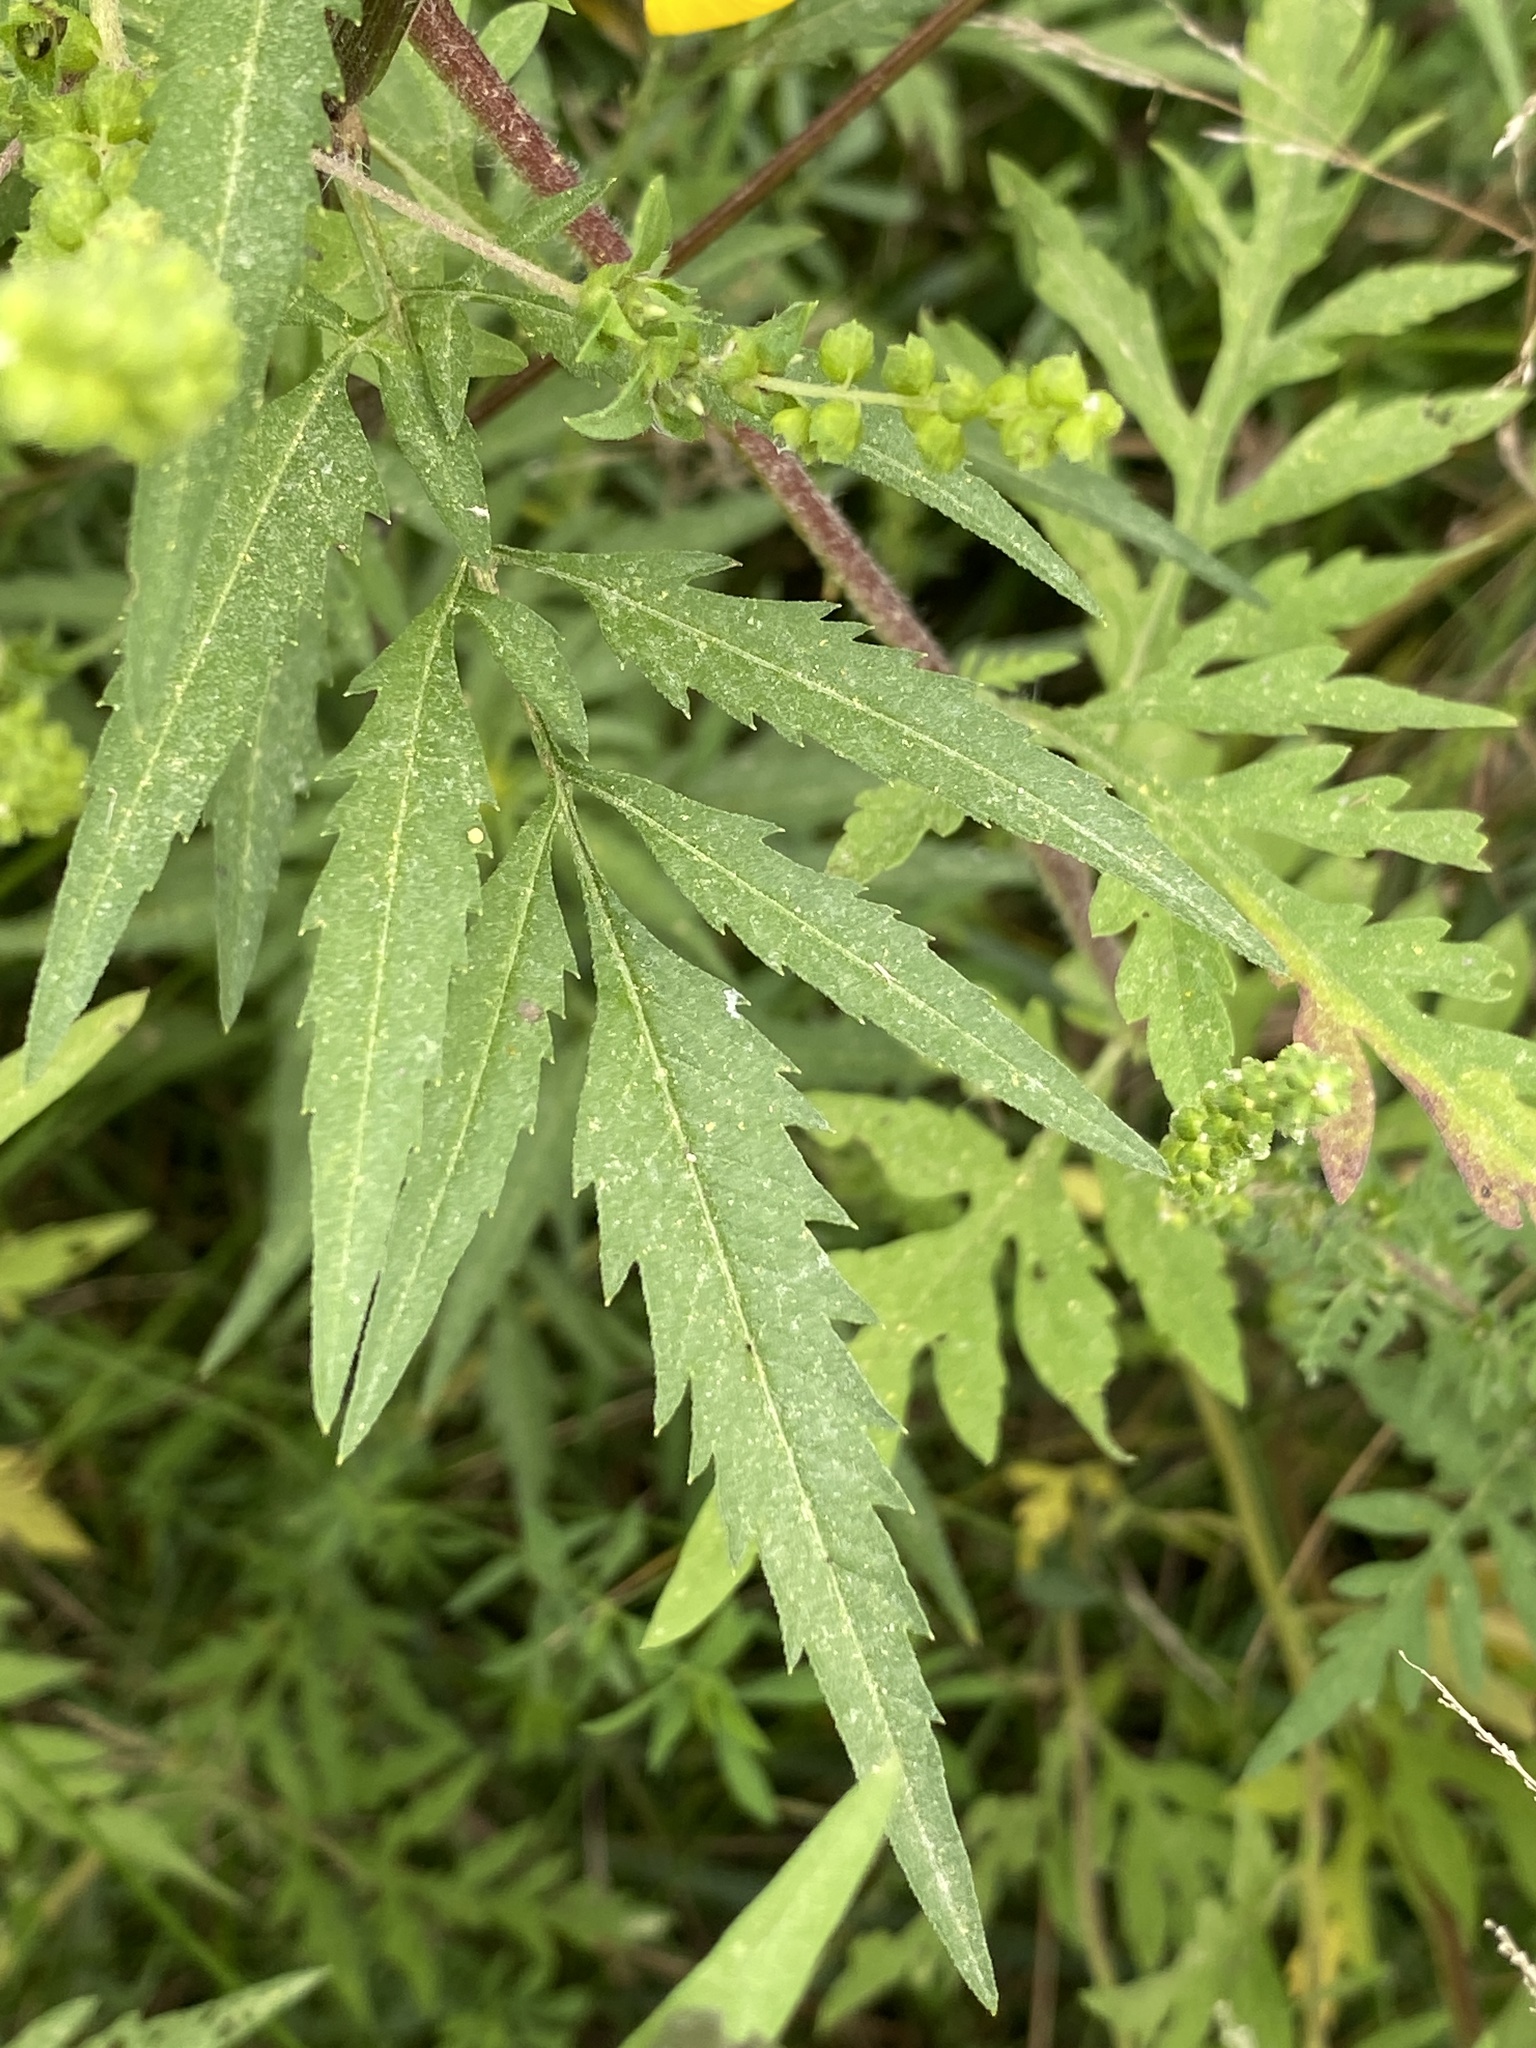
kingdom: Plantae
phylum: Tracheophyta
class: Magnoliopsida
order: Asterales
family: Asteraceae
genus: Bidens
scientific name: Bidens polylepis
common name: Awnless beggarticks
